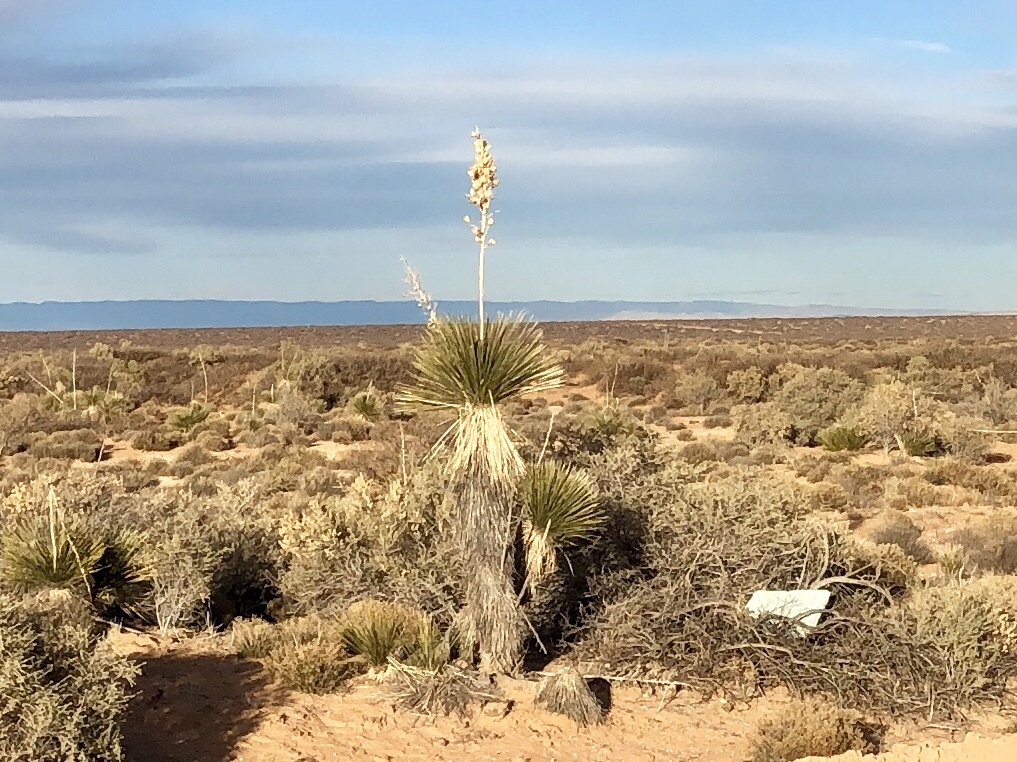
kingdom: Plantae
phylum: Tracheophyta
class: Liliopsida
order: Asparagales
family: Asparagaceae
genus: Yucca
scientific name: Yucca elata
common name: Palmella
